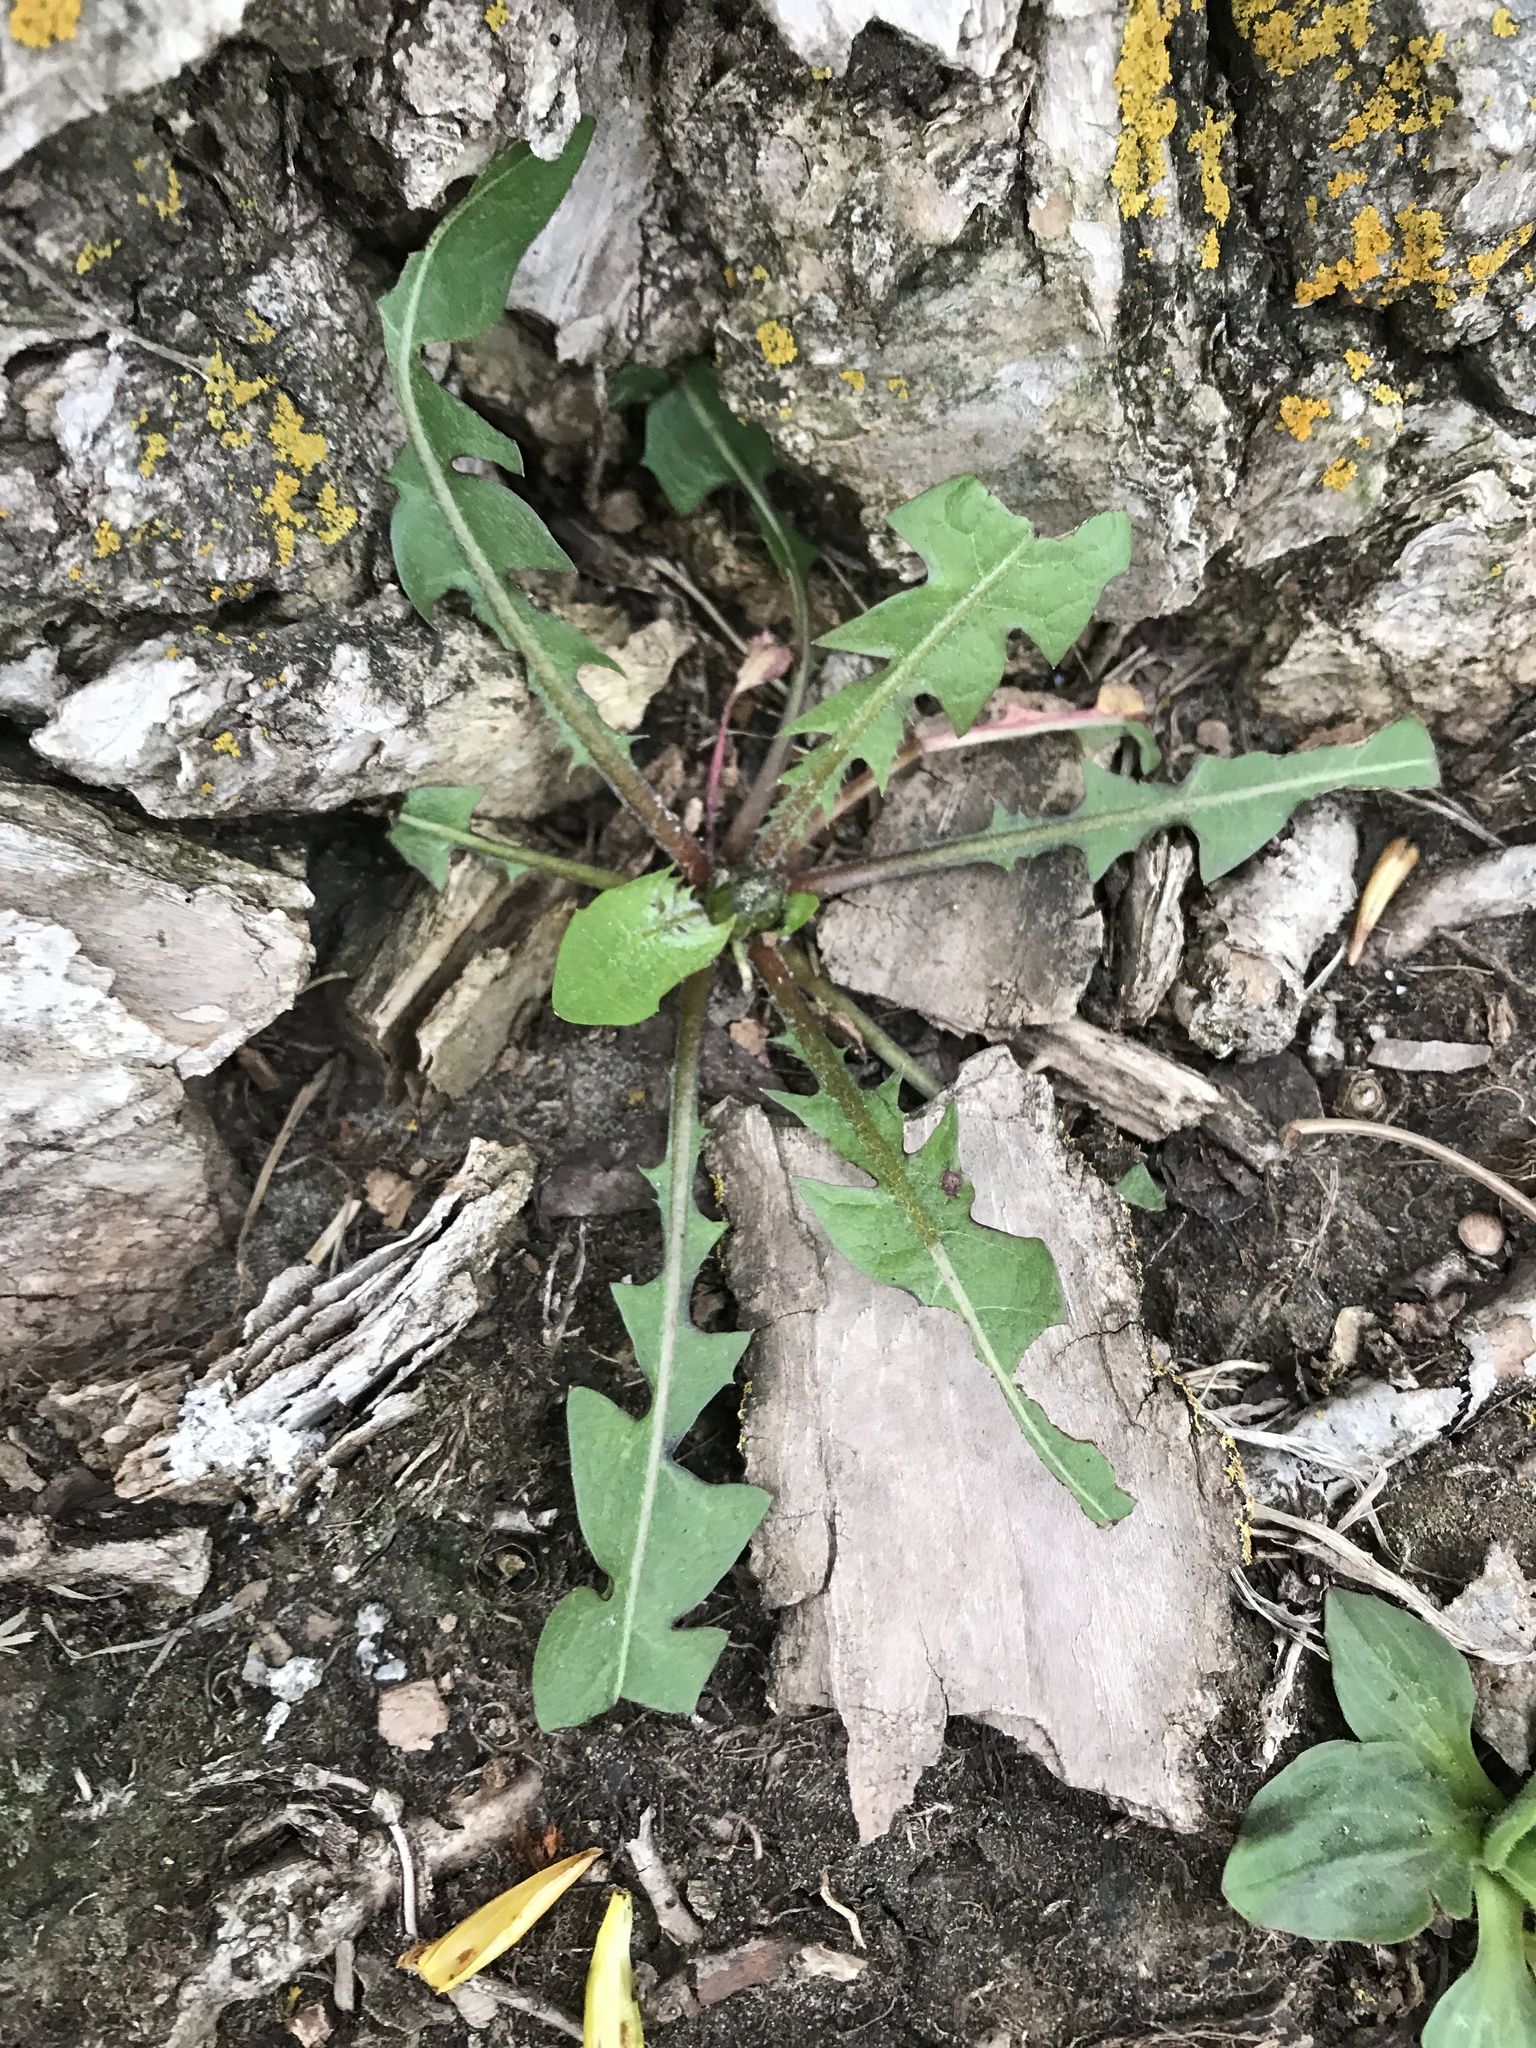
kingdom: Plantae
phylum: Tracheophyta
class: Magnoliopsida
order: Asterales
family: Asteraceae
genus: Taraxacum
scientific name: Taraxacum officinale
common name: Common dandelion
